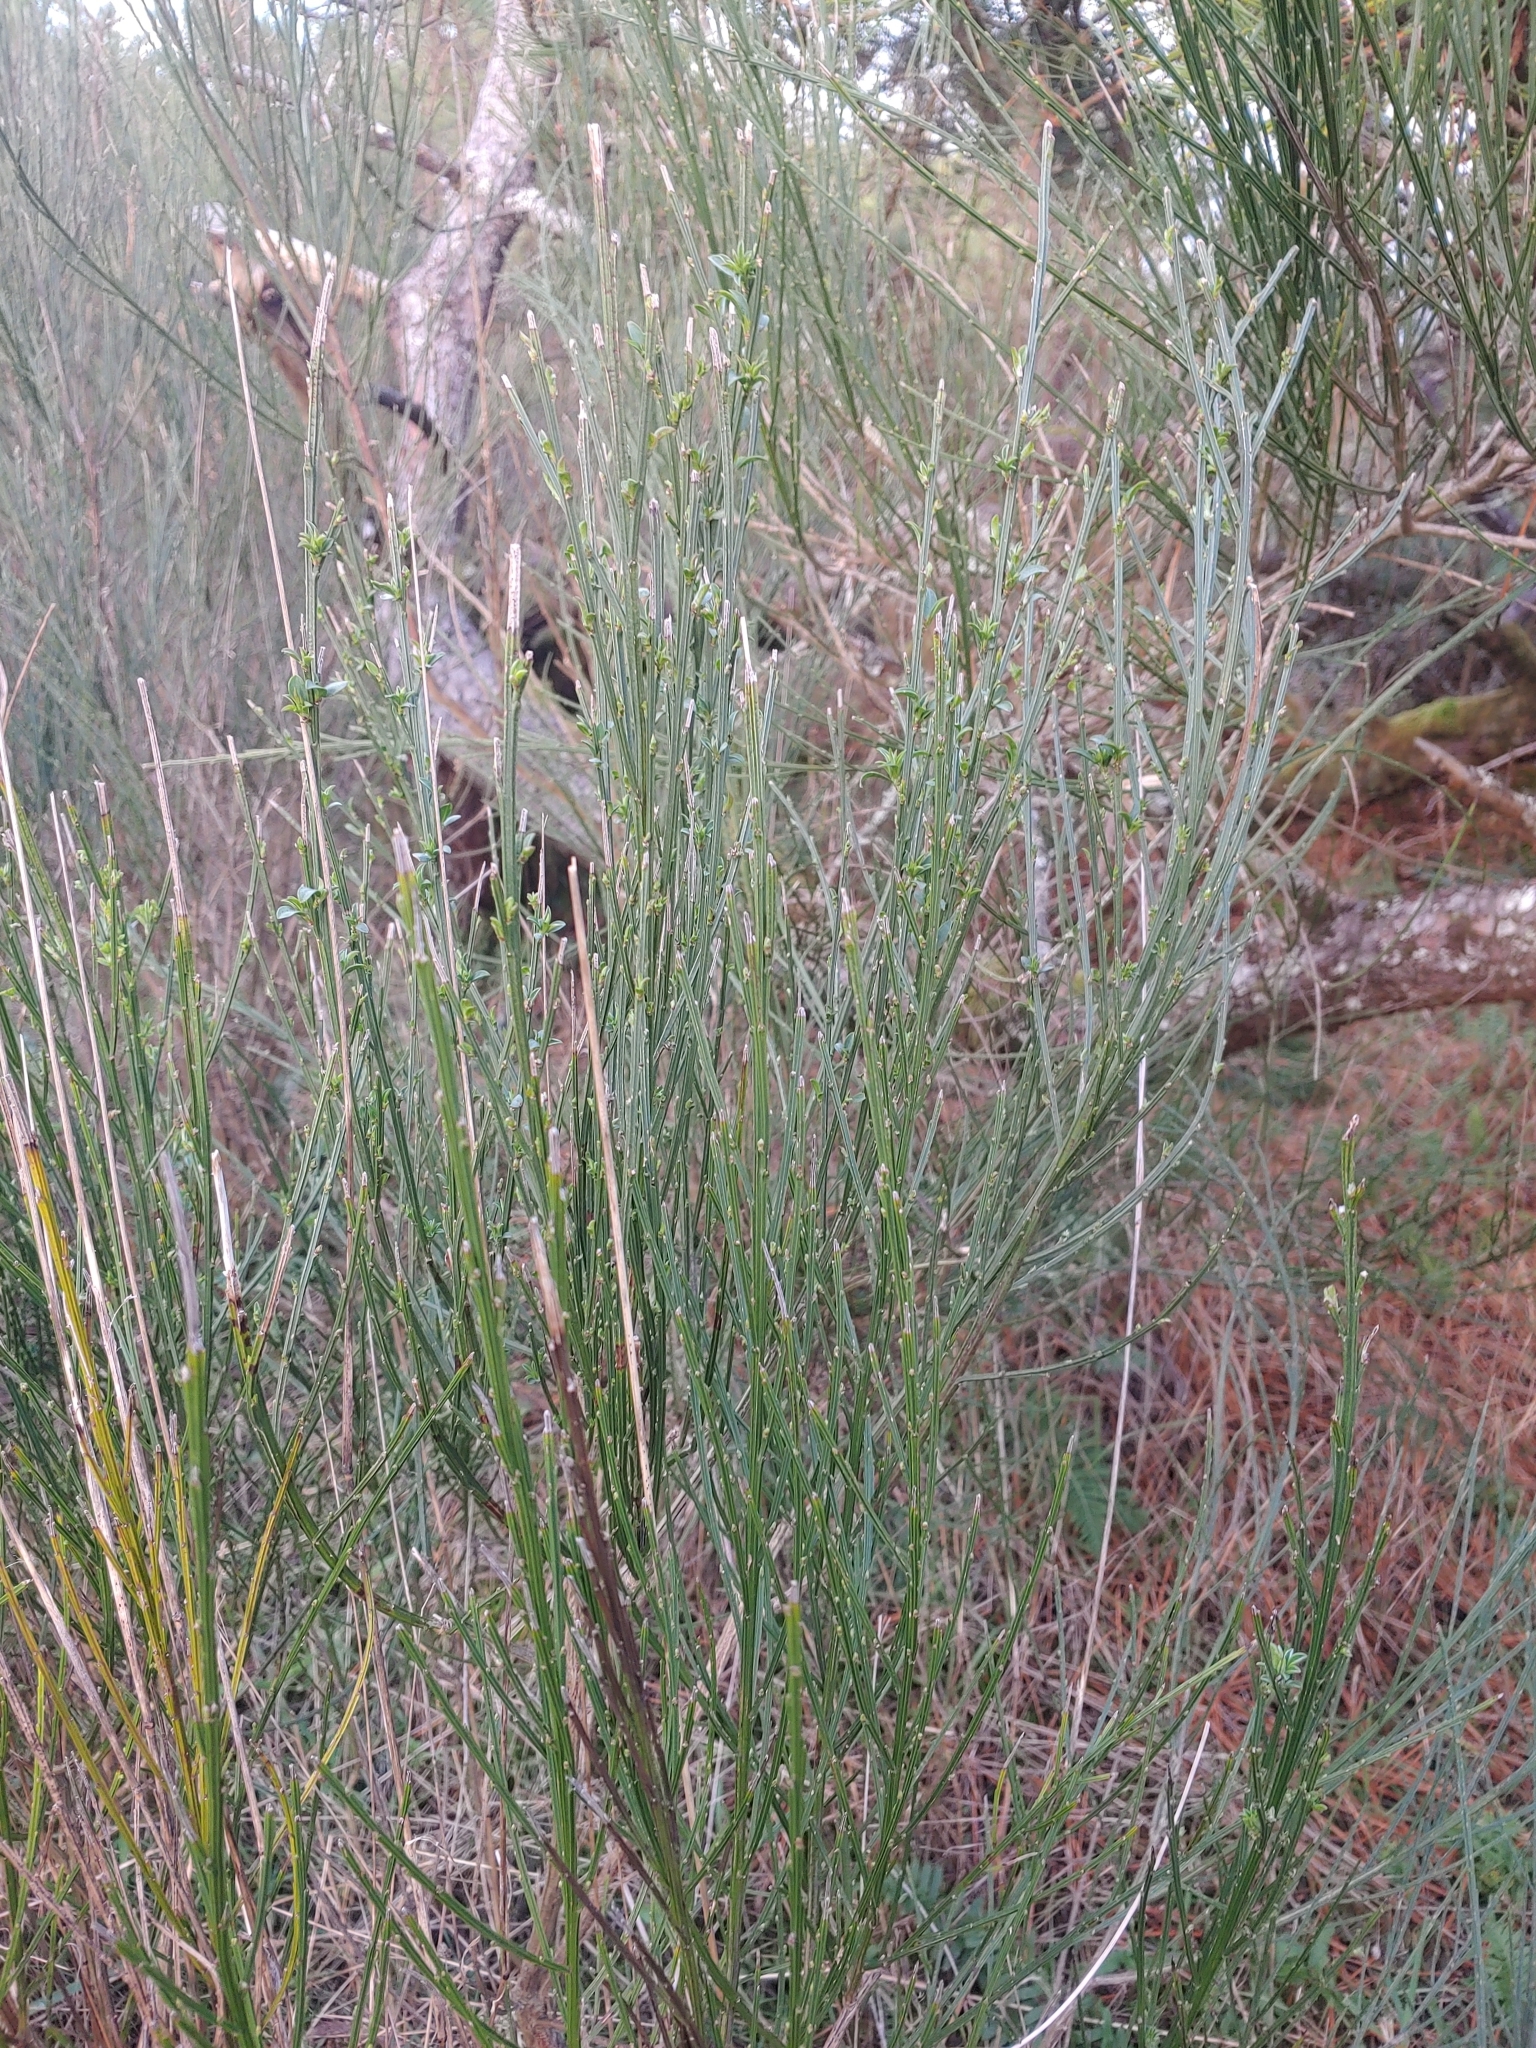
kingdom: Plantae
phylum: Tracheophyta
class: Magnoliopsida
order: Fabales
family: Fabaceae
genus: Cytisus
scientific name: Cytisus scoparius
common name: Scotch broom
